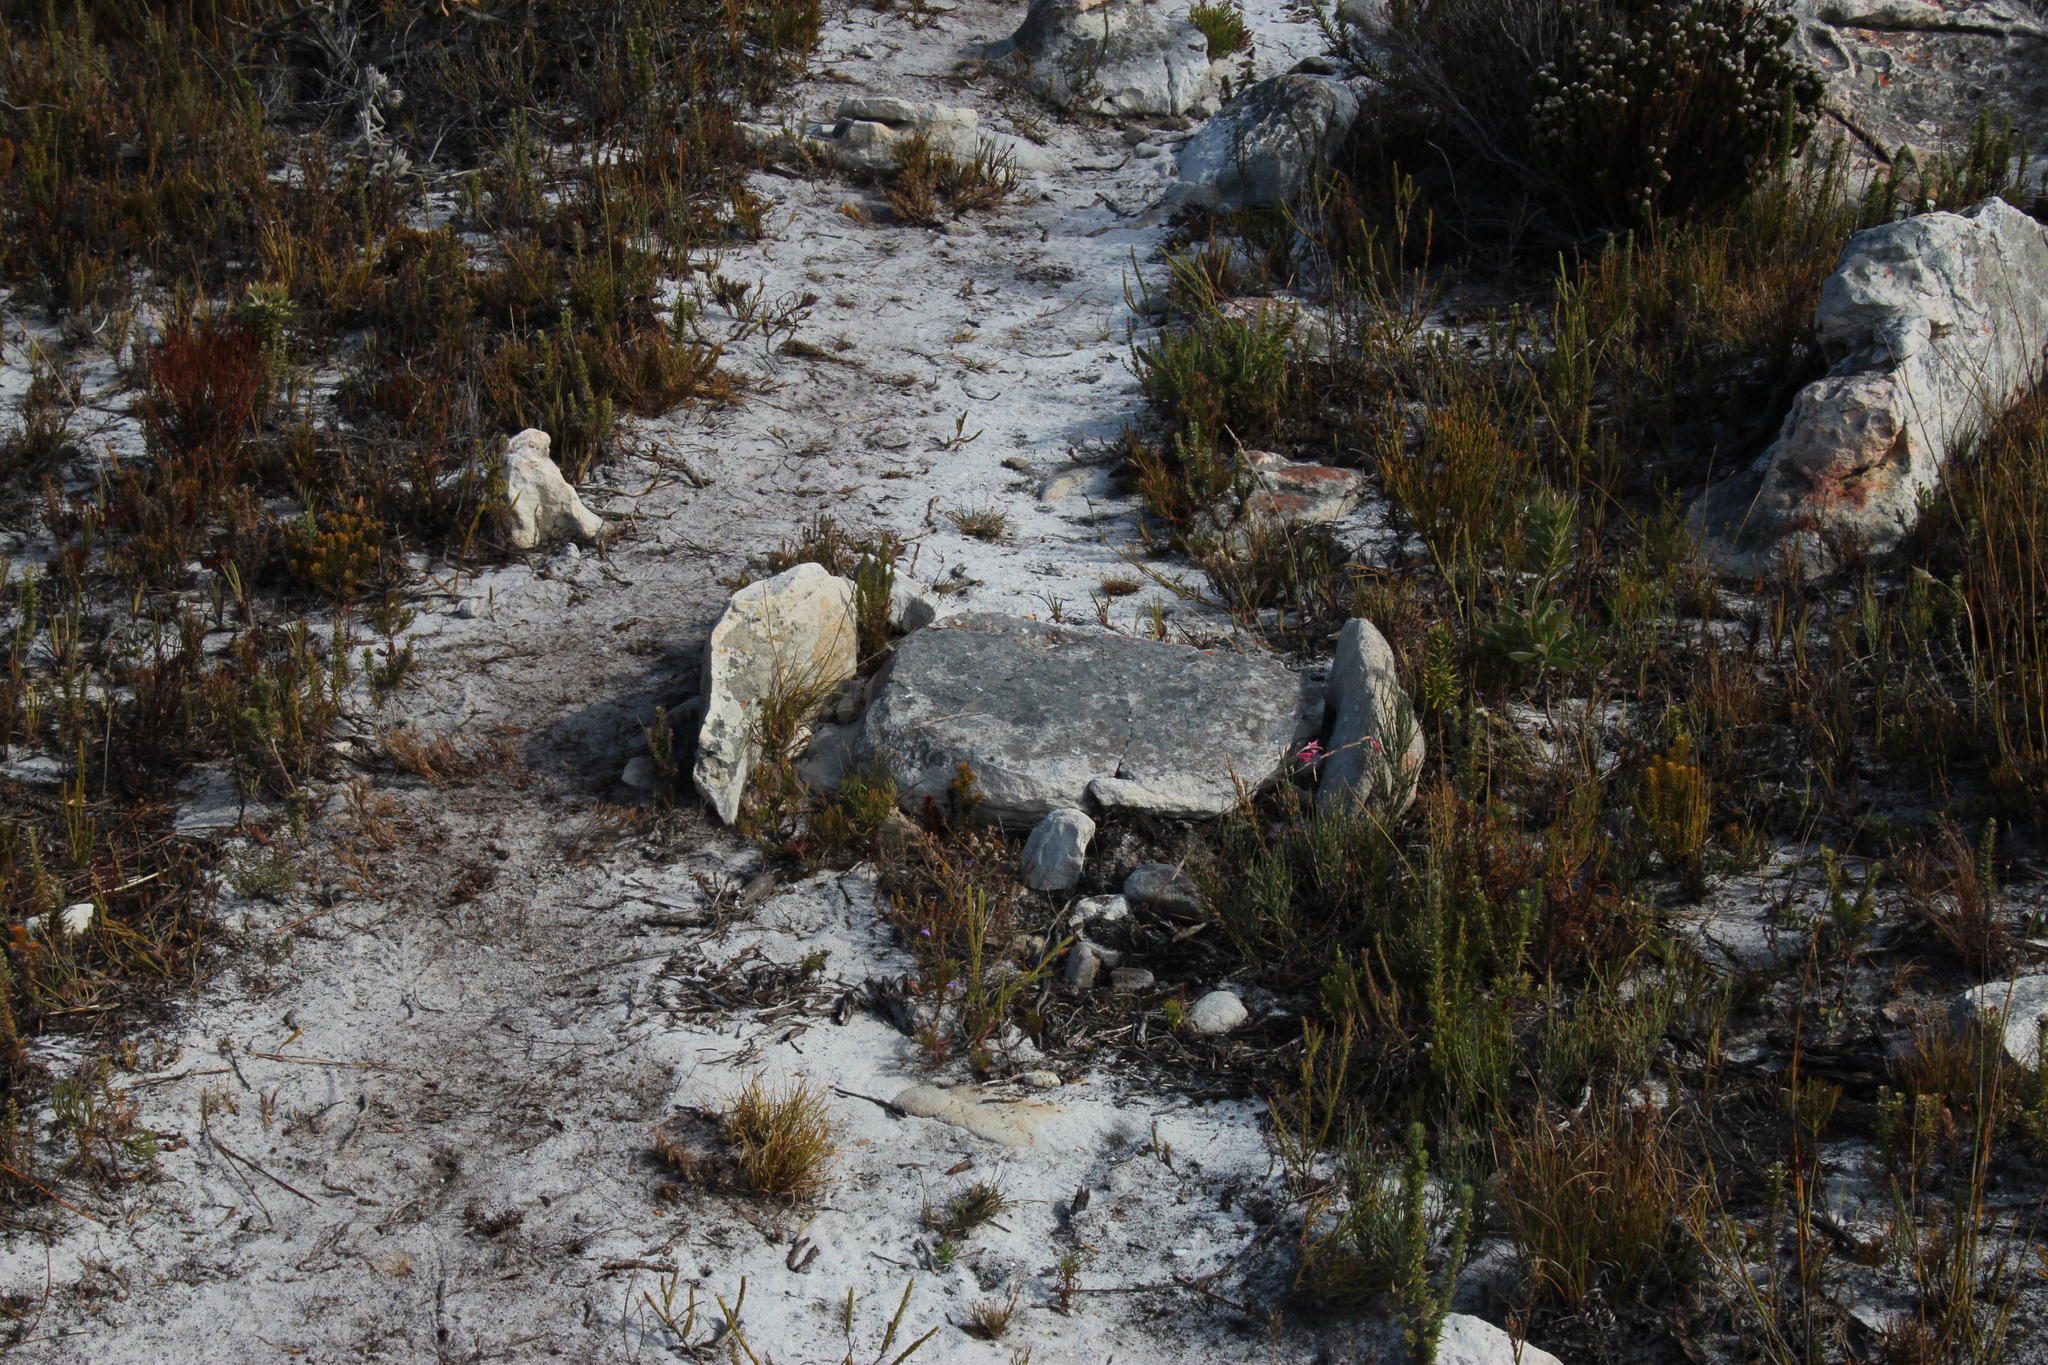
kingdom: Plantae
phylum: Tracheophyta
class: Liliopsida
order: Asparagales
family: Iridaceae
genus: Gladiolus
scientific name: Gladiolus brevifolius
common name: March pypie
